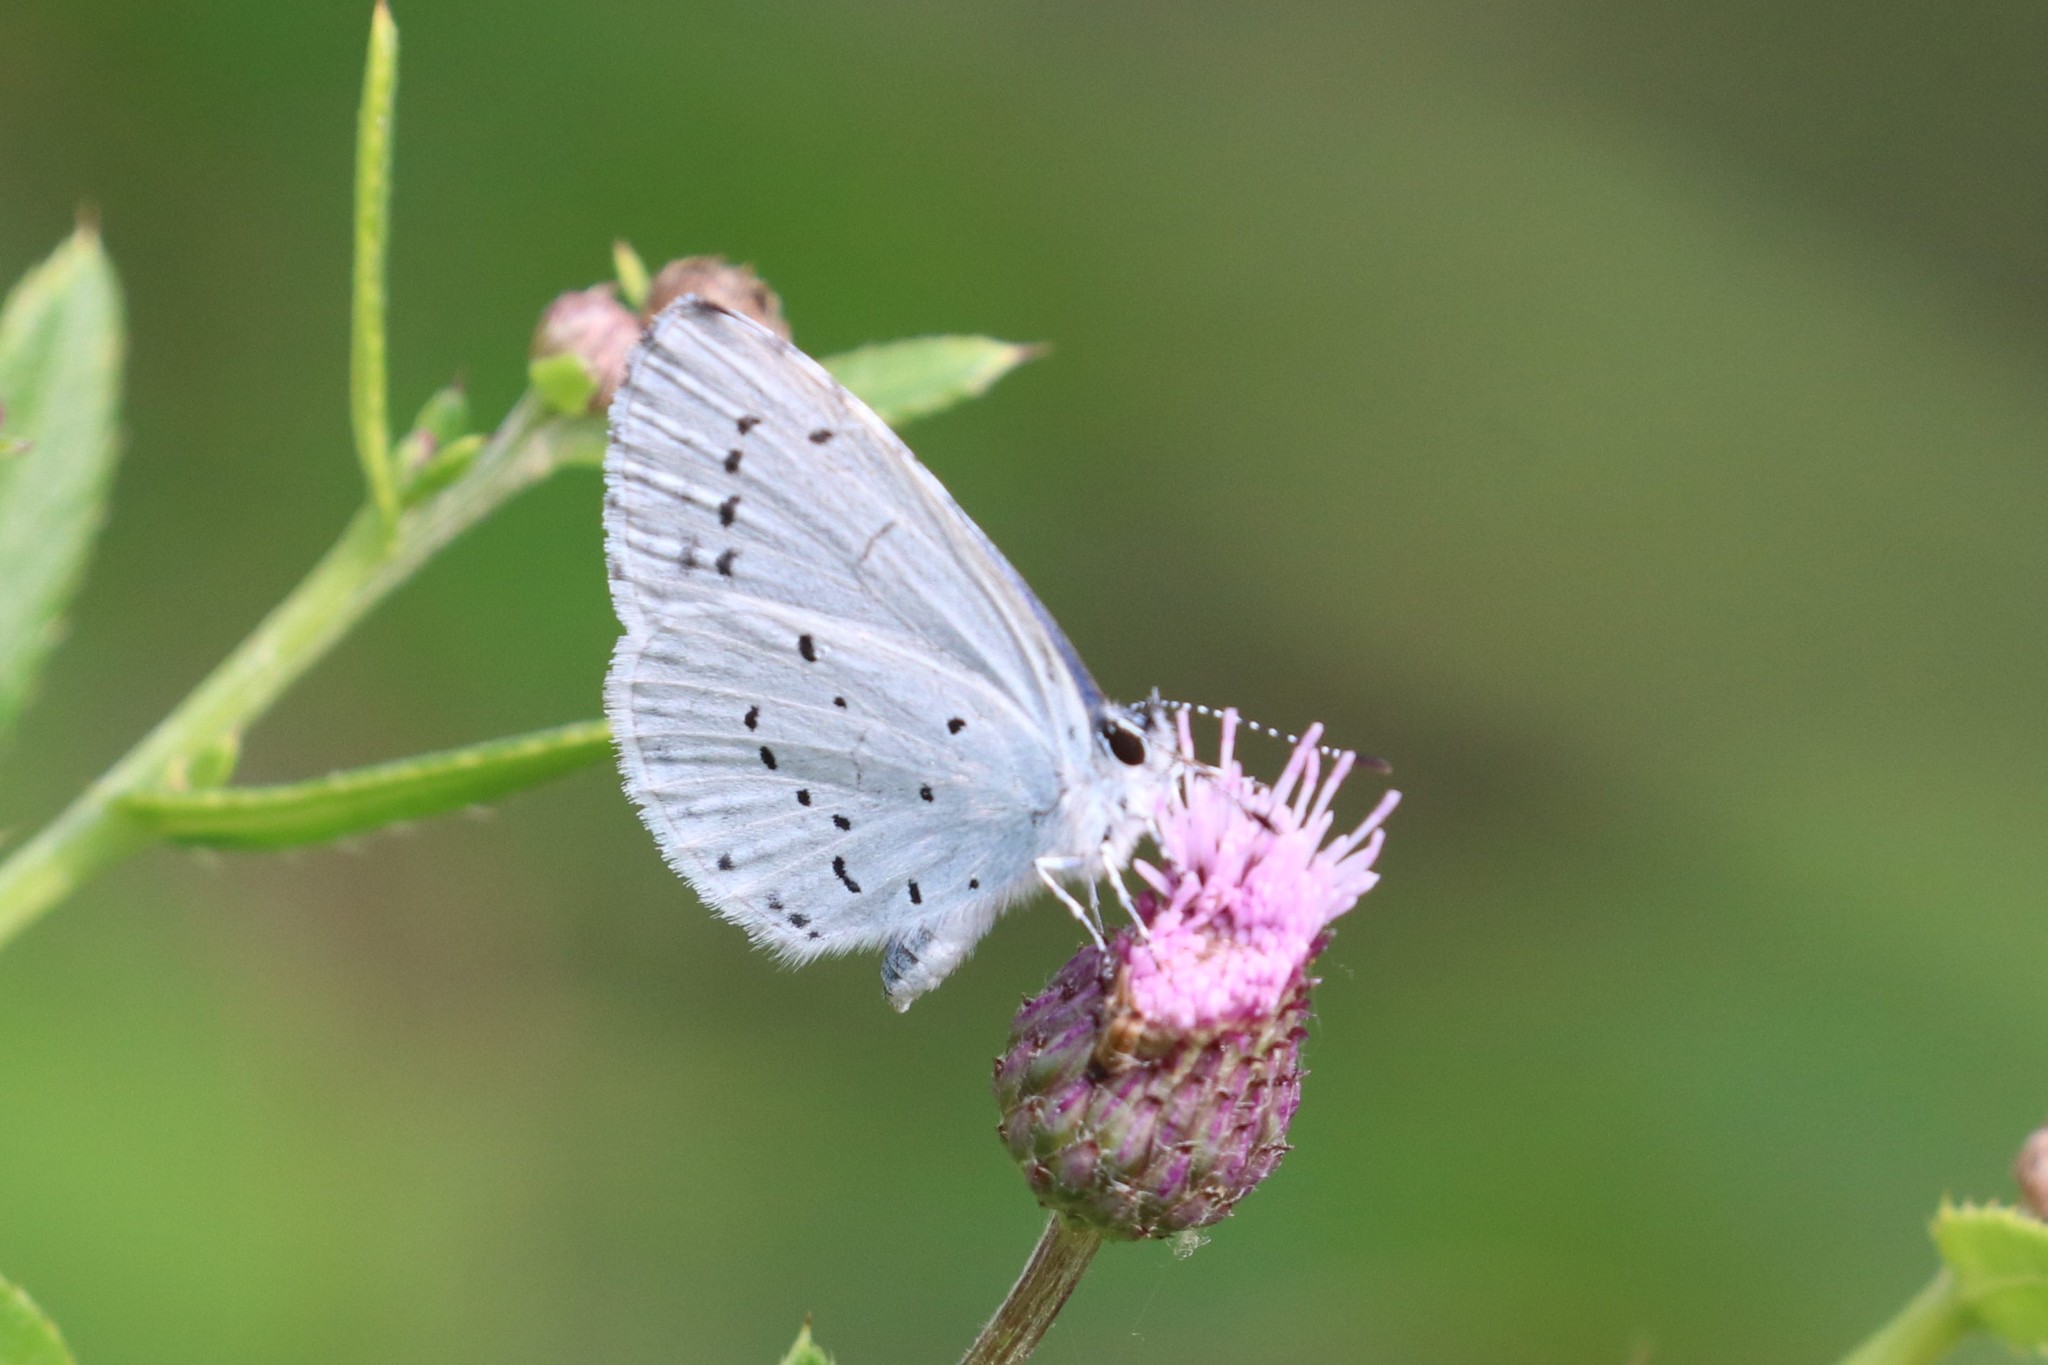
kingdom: Animalia
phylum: Arthropoda
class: Insecta
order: Lepidoptera
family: Lycaenidae
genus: Celastrina
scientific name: Celastrina argiolus
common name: Holly blue
